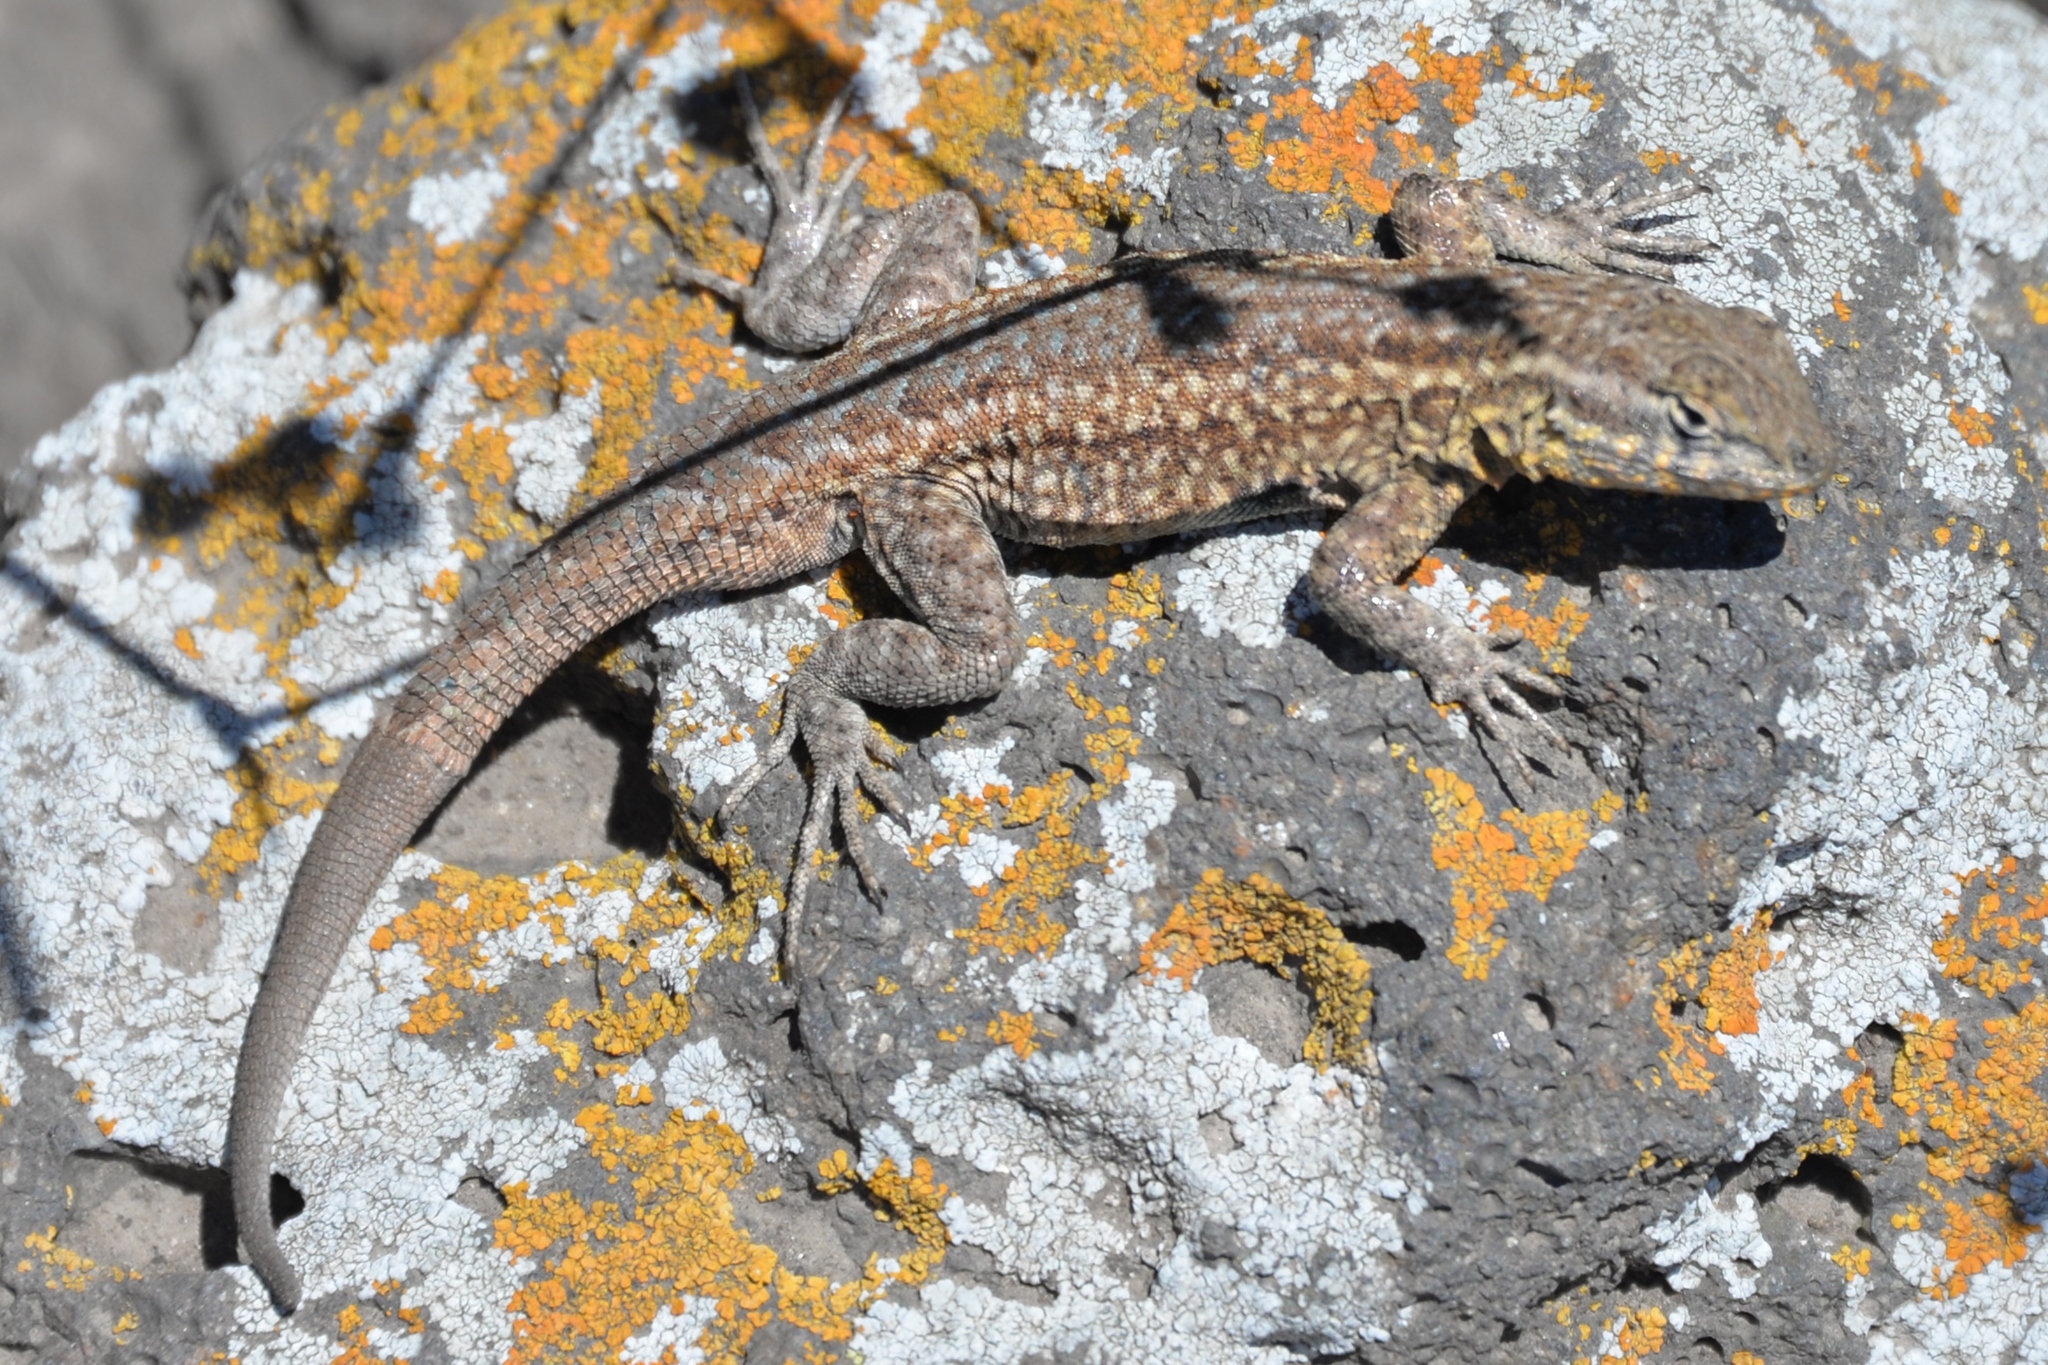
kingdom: Animalia
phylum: Chordata
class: Squamata
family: Phrynosomatidae
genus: Uta
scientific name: Uta stansburiana
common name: Side-blotched lizard
